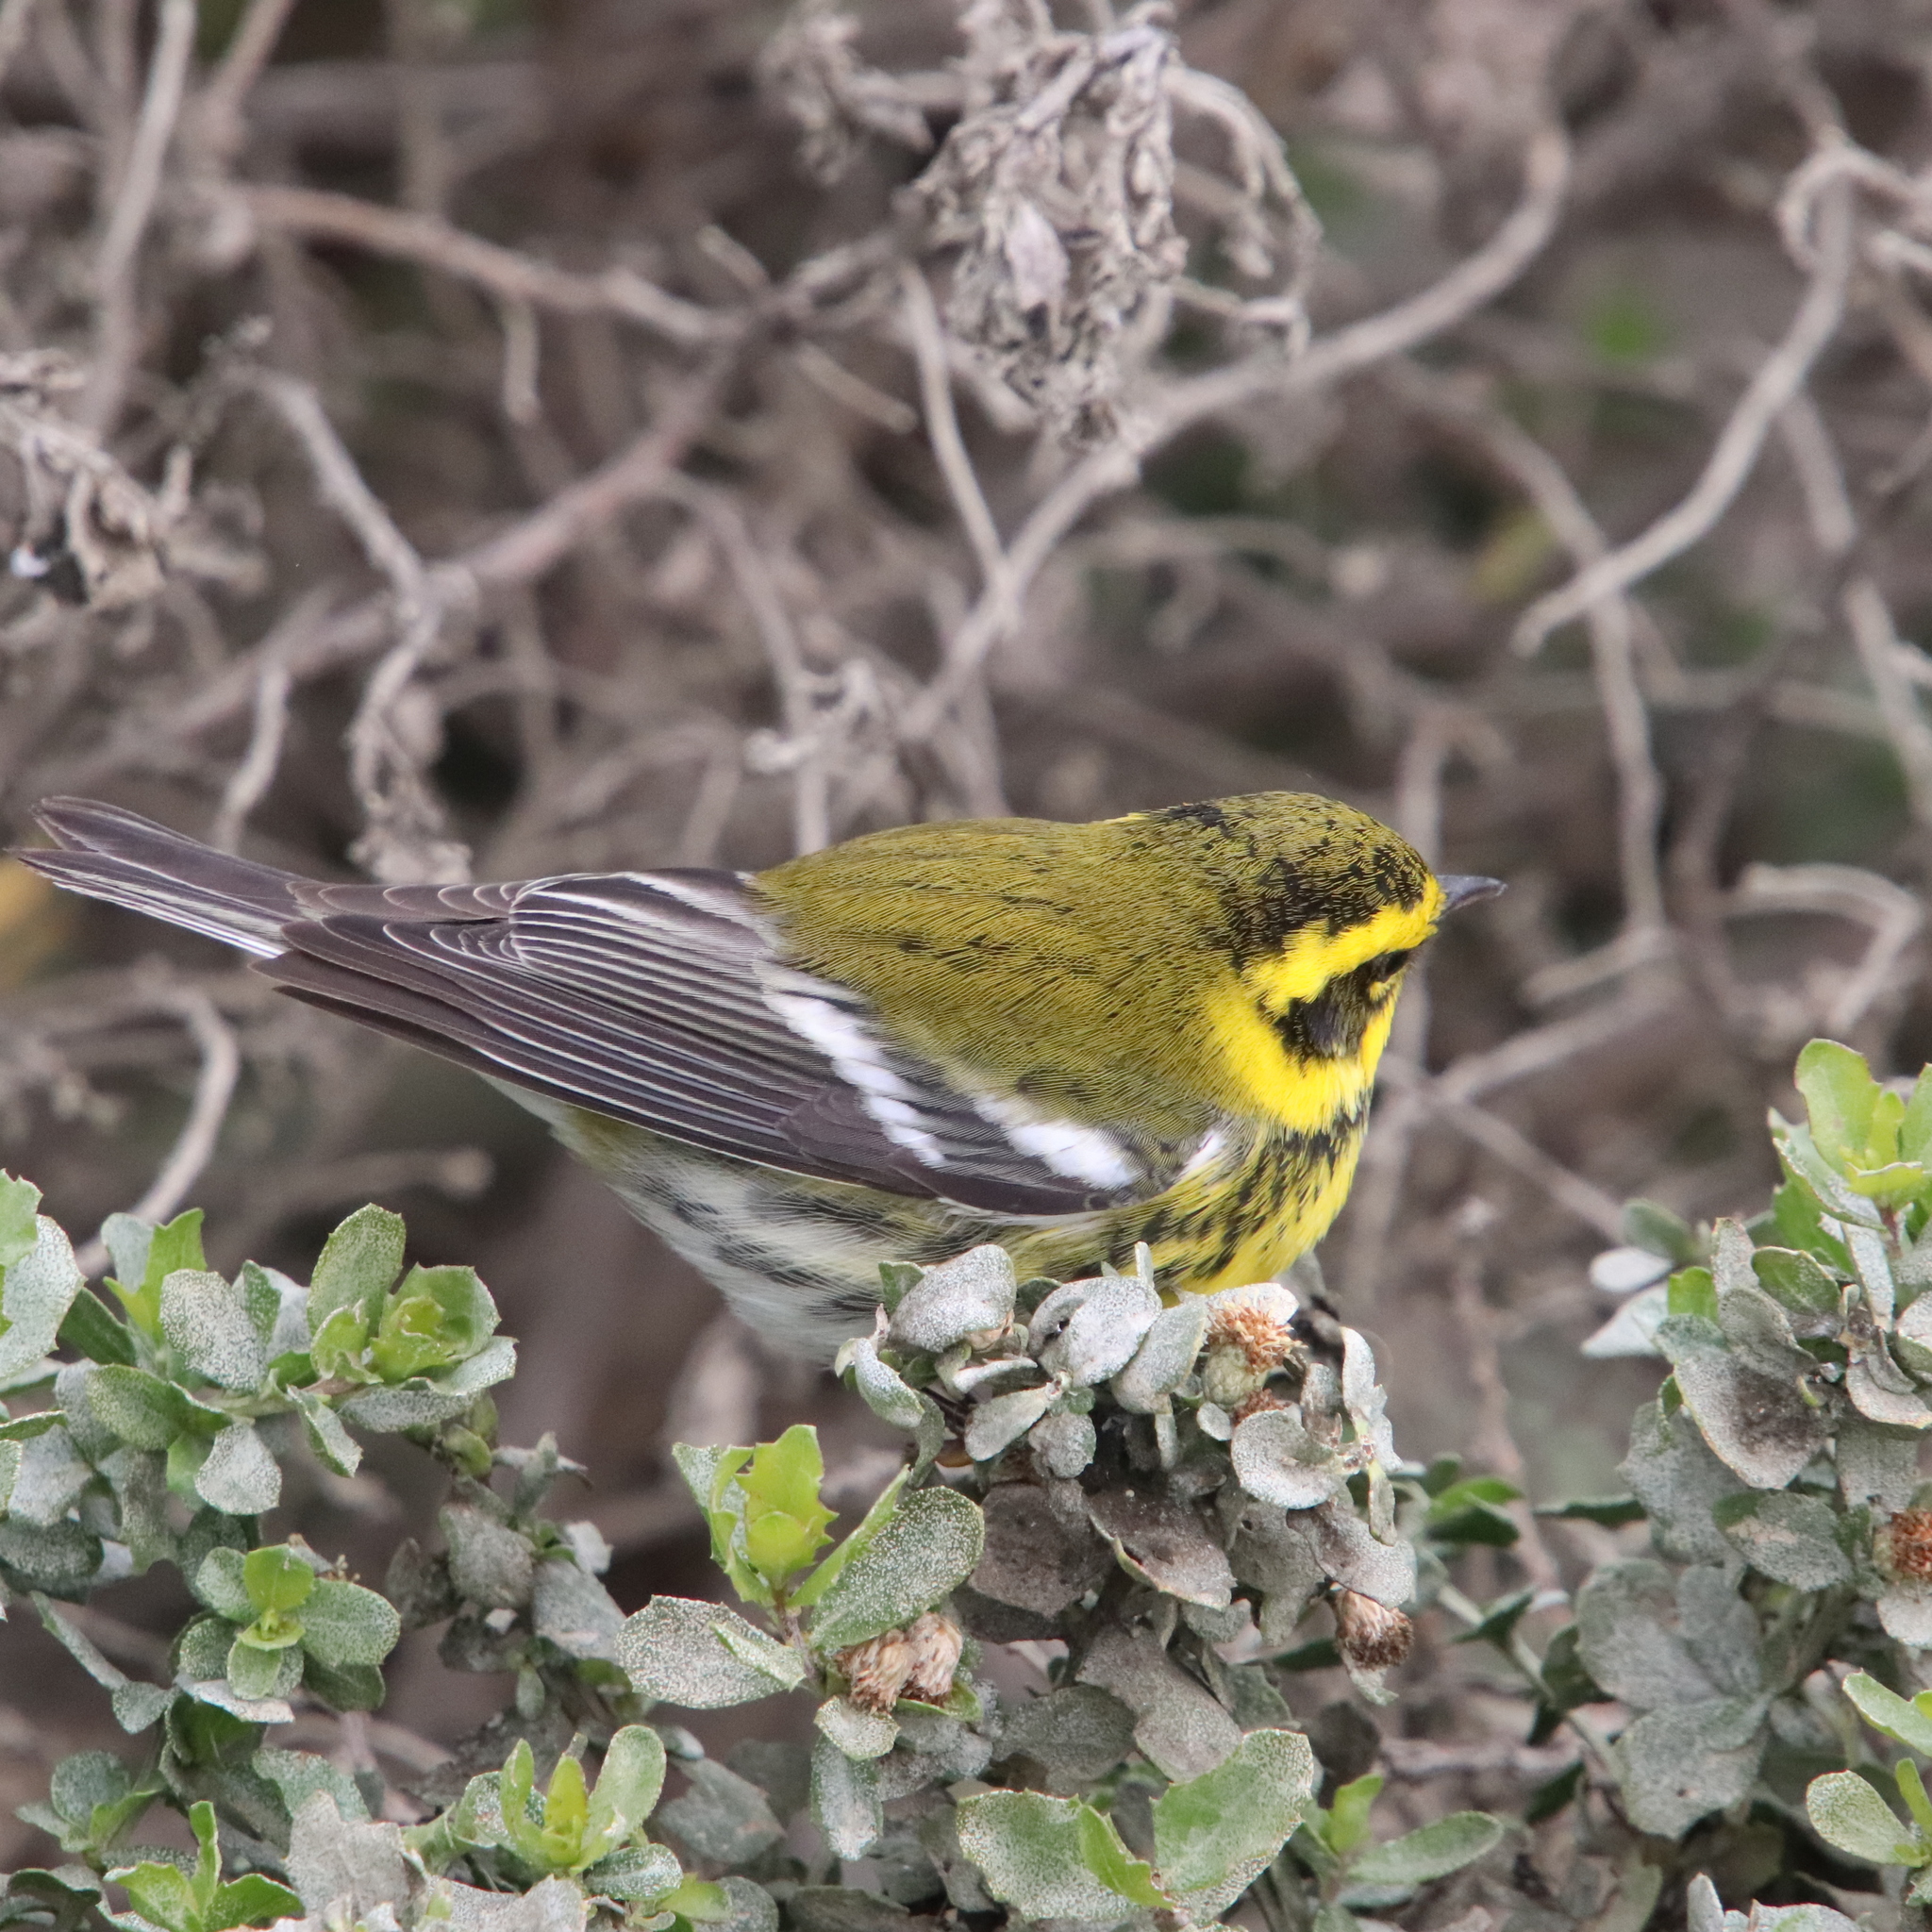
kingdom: Animalia
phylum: Chordata
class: Aves
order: Passeriformes
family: Parulidae
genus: Setophaga
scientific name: Setophaga townsendi
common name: Townsend's warbler
